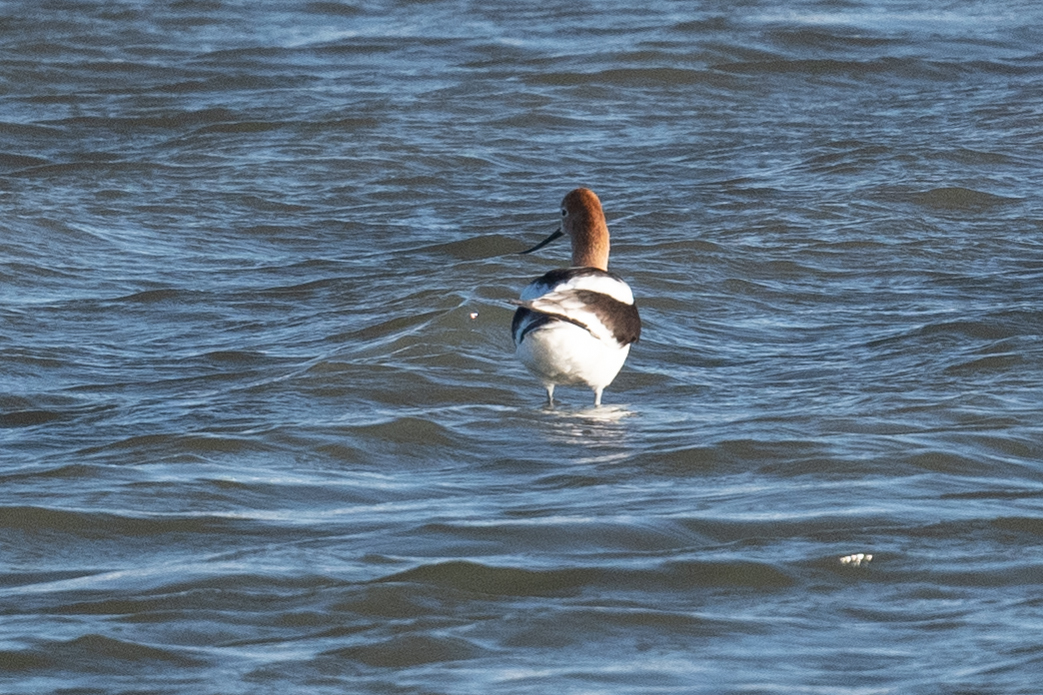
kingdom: Animalia
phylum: Chordata
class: Aves
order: Charadriiformes
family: Recurvirostridae
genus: Recurvirostra
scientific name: Recurvirostra americana
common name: American avocet
